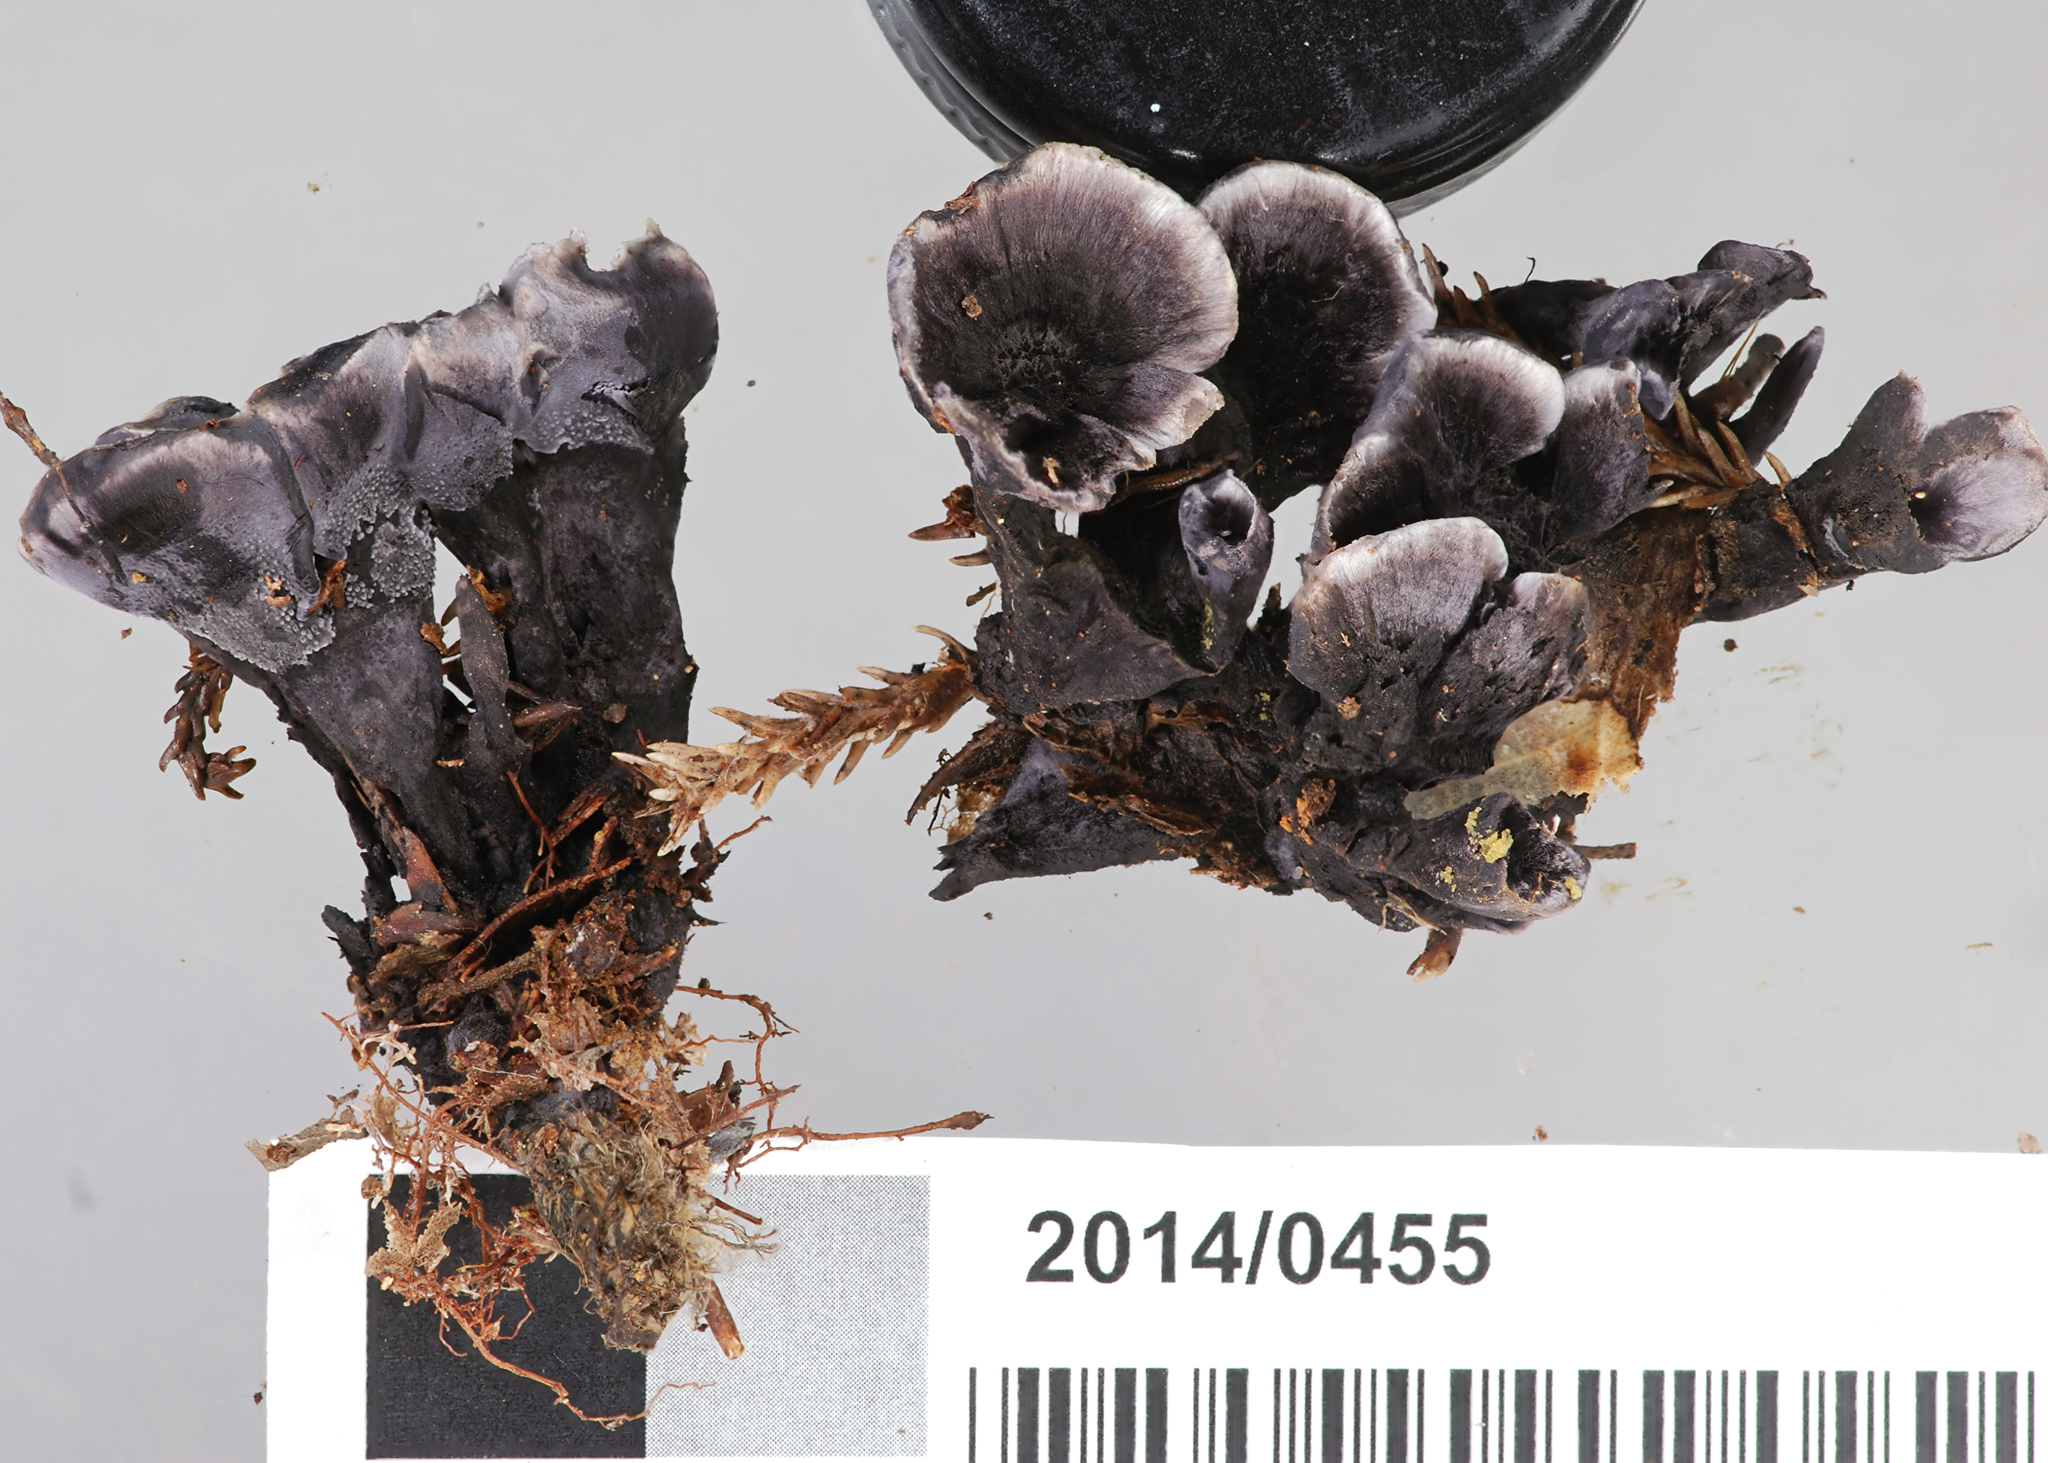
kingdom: Fungi
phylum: Basidiomycota
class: Agaricomycetes
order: Thelephorales
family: Thelephoraceae
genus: Phellodon
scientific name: Phellodon sinclairii
